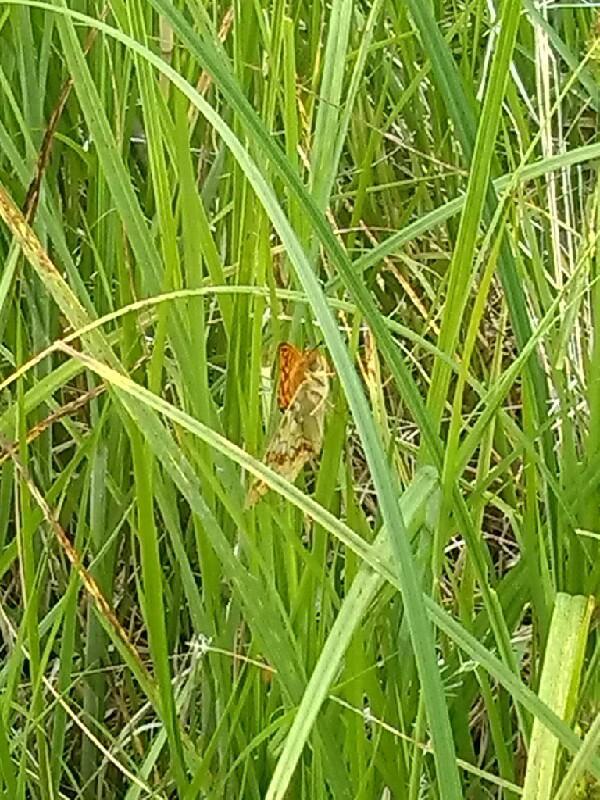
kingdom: Animalia
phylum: Arthropoda
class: Insecta
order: Lepidoptera
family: Nymphalidae
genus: Fabriciana
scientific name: Fabriciana adippe
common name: High brown fritillary
